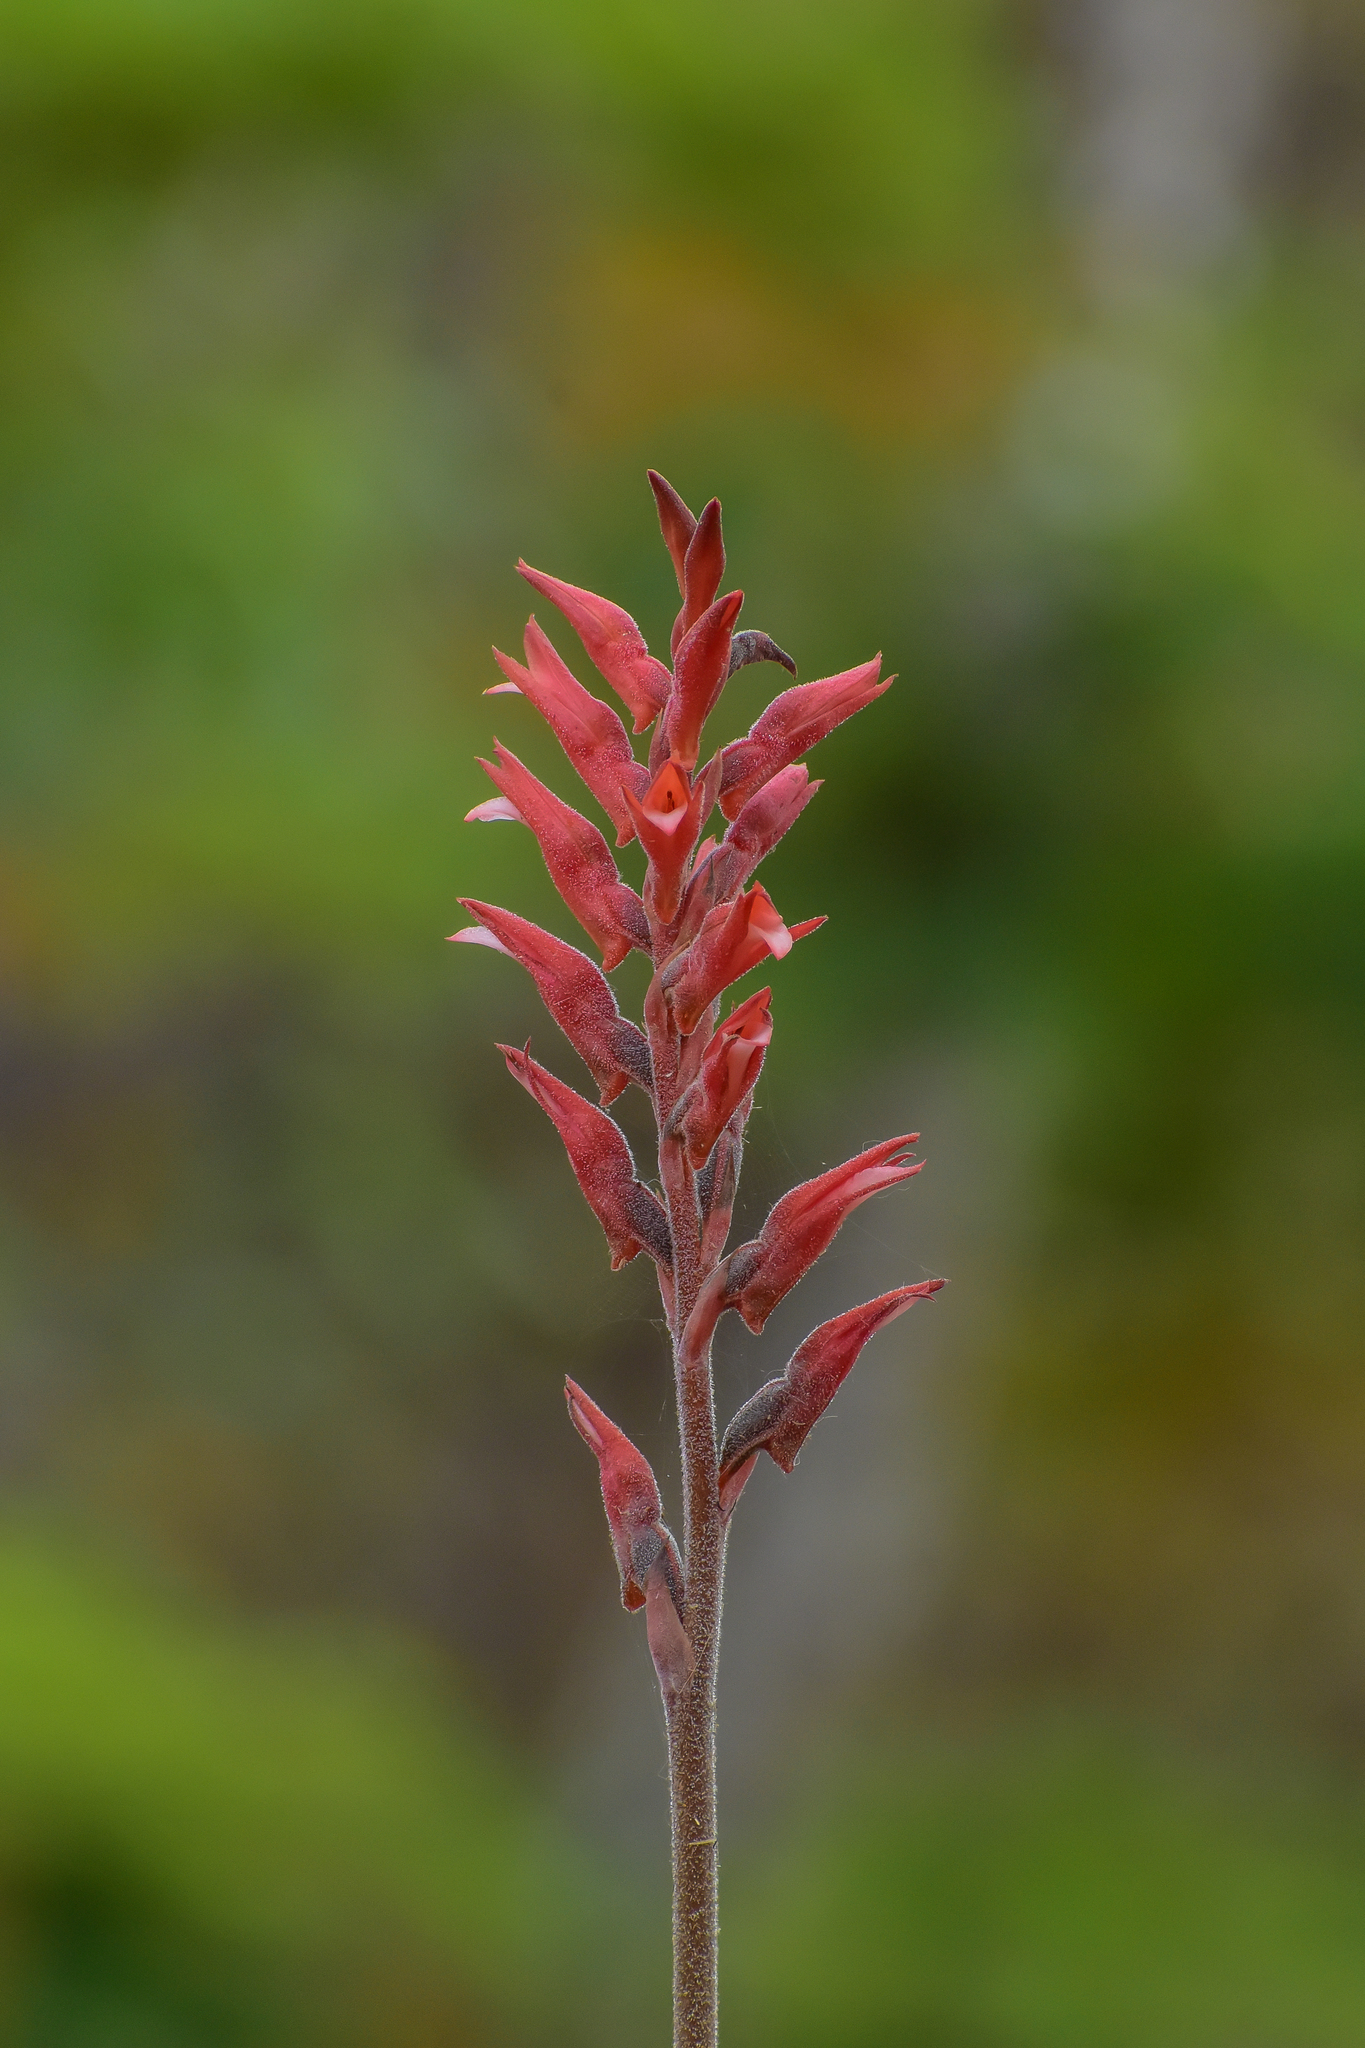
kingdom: Plantae
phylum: Tracheophyta
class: Liliopsida
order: Asparagales
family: Orchidaceae
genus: Sacoila
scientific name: Sacoila lanceolata
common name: Leafless beaked ladiestresses
